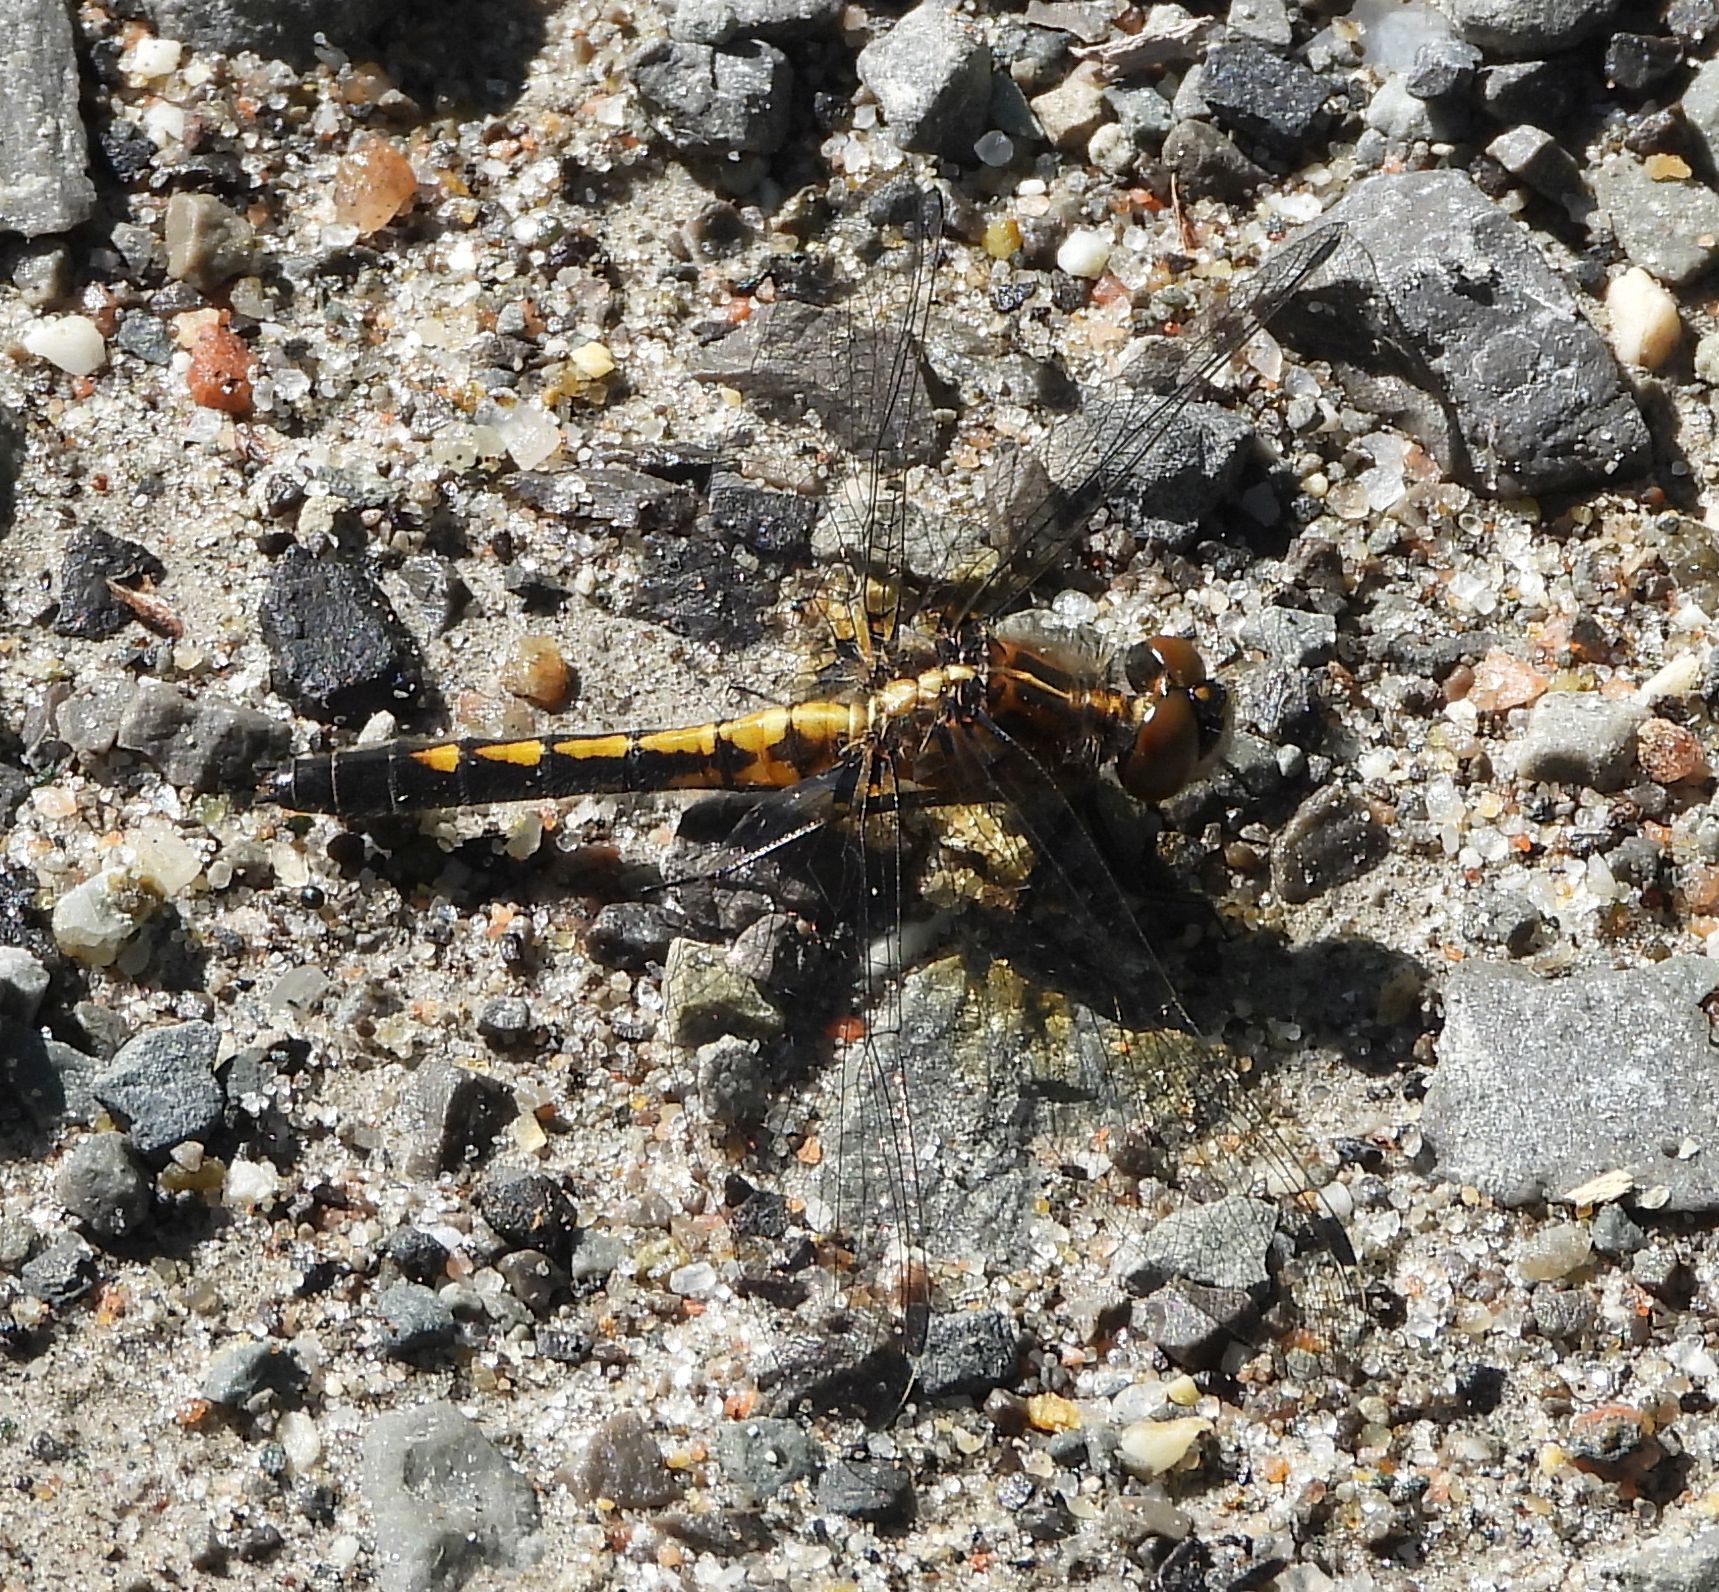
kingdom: Animalia
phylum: Arthropoda
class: Insecta
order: Odonata
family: Libellulidae
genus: Leucorrhinia
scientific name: Leucorrhinia intacta
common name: Dot-tailed whiteface
